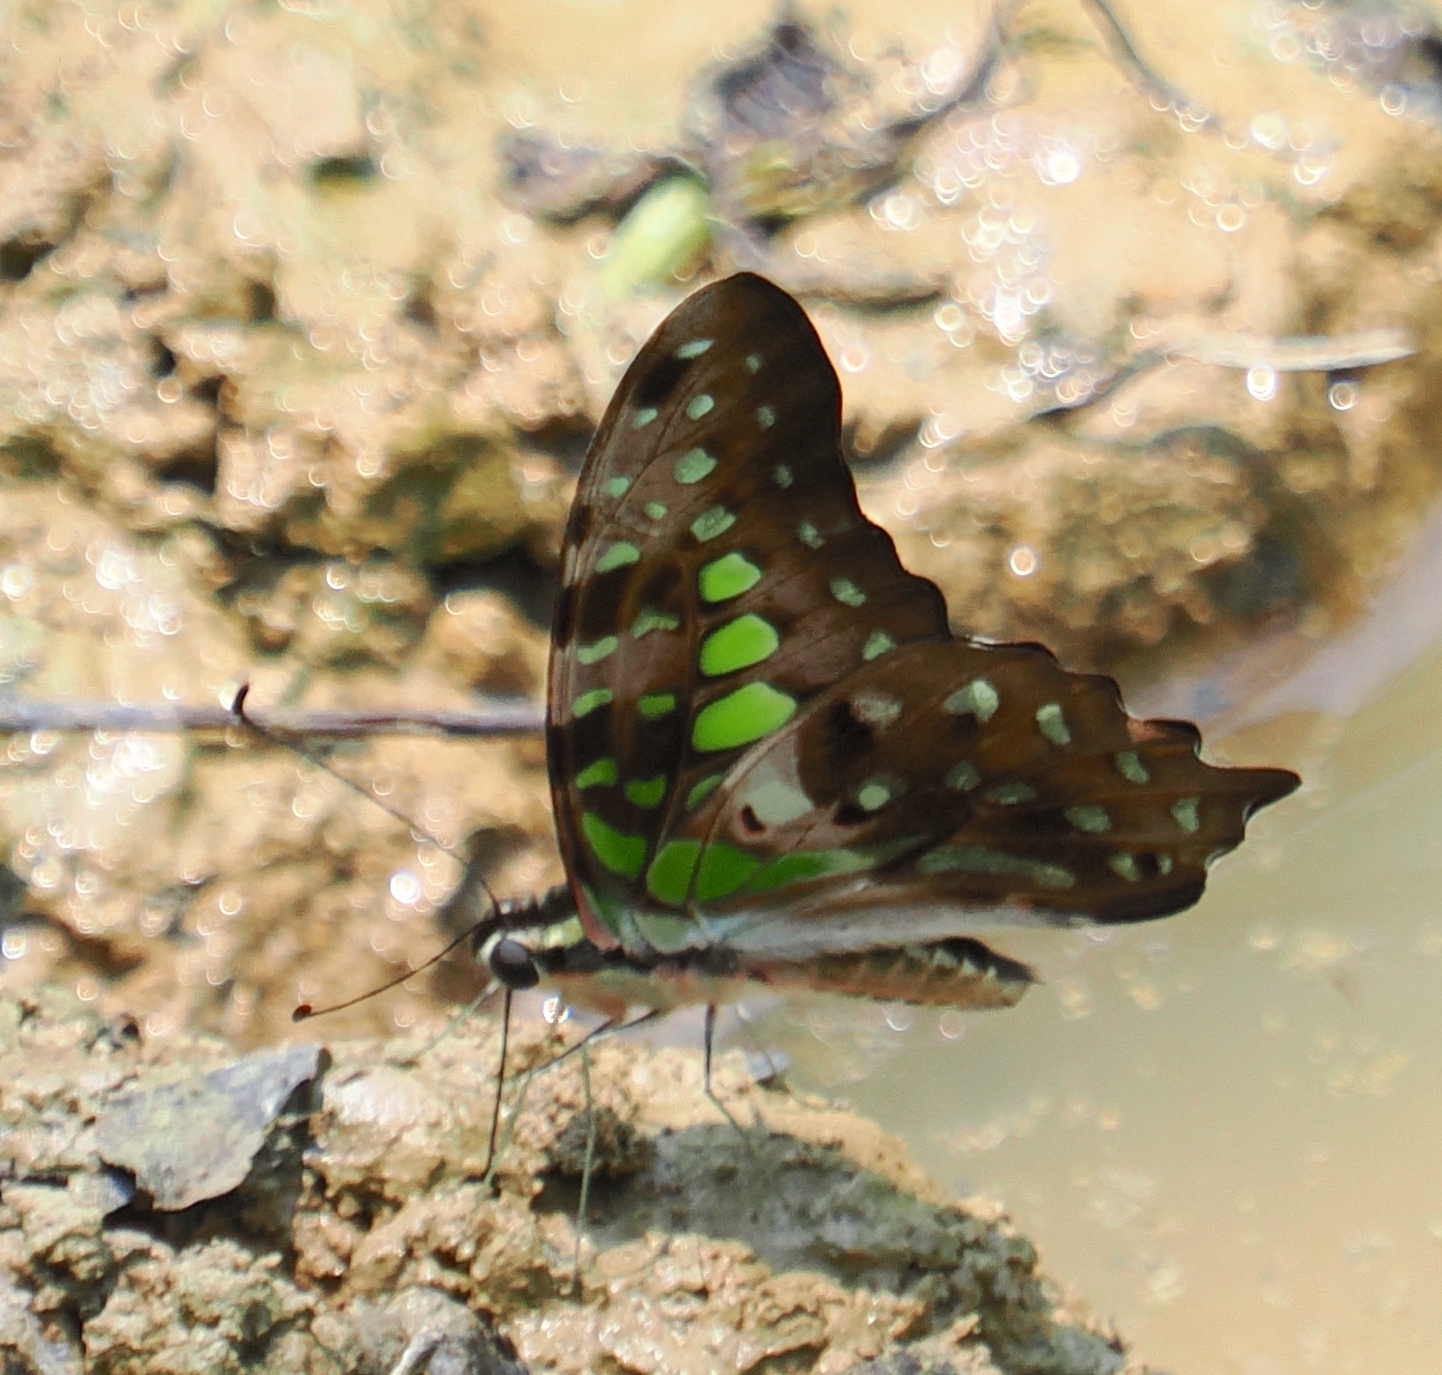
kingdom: Animalia
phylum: Arthropoda
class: Insecta
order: Lepidoptera
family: Papilionidae
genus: Graphium
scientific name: Graphium agamemnon
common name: Tailed jay
